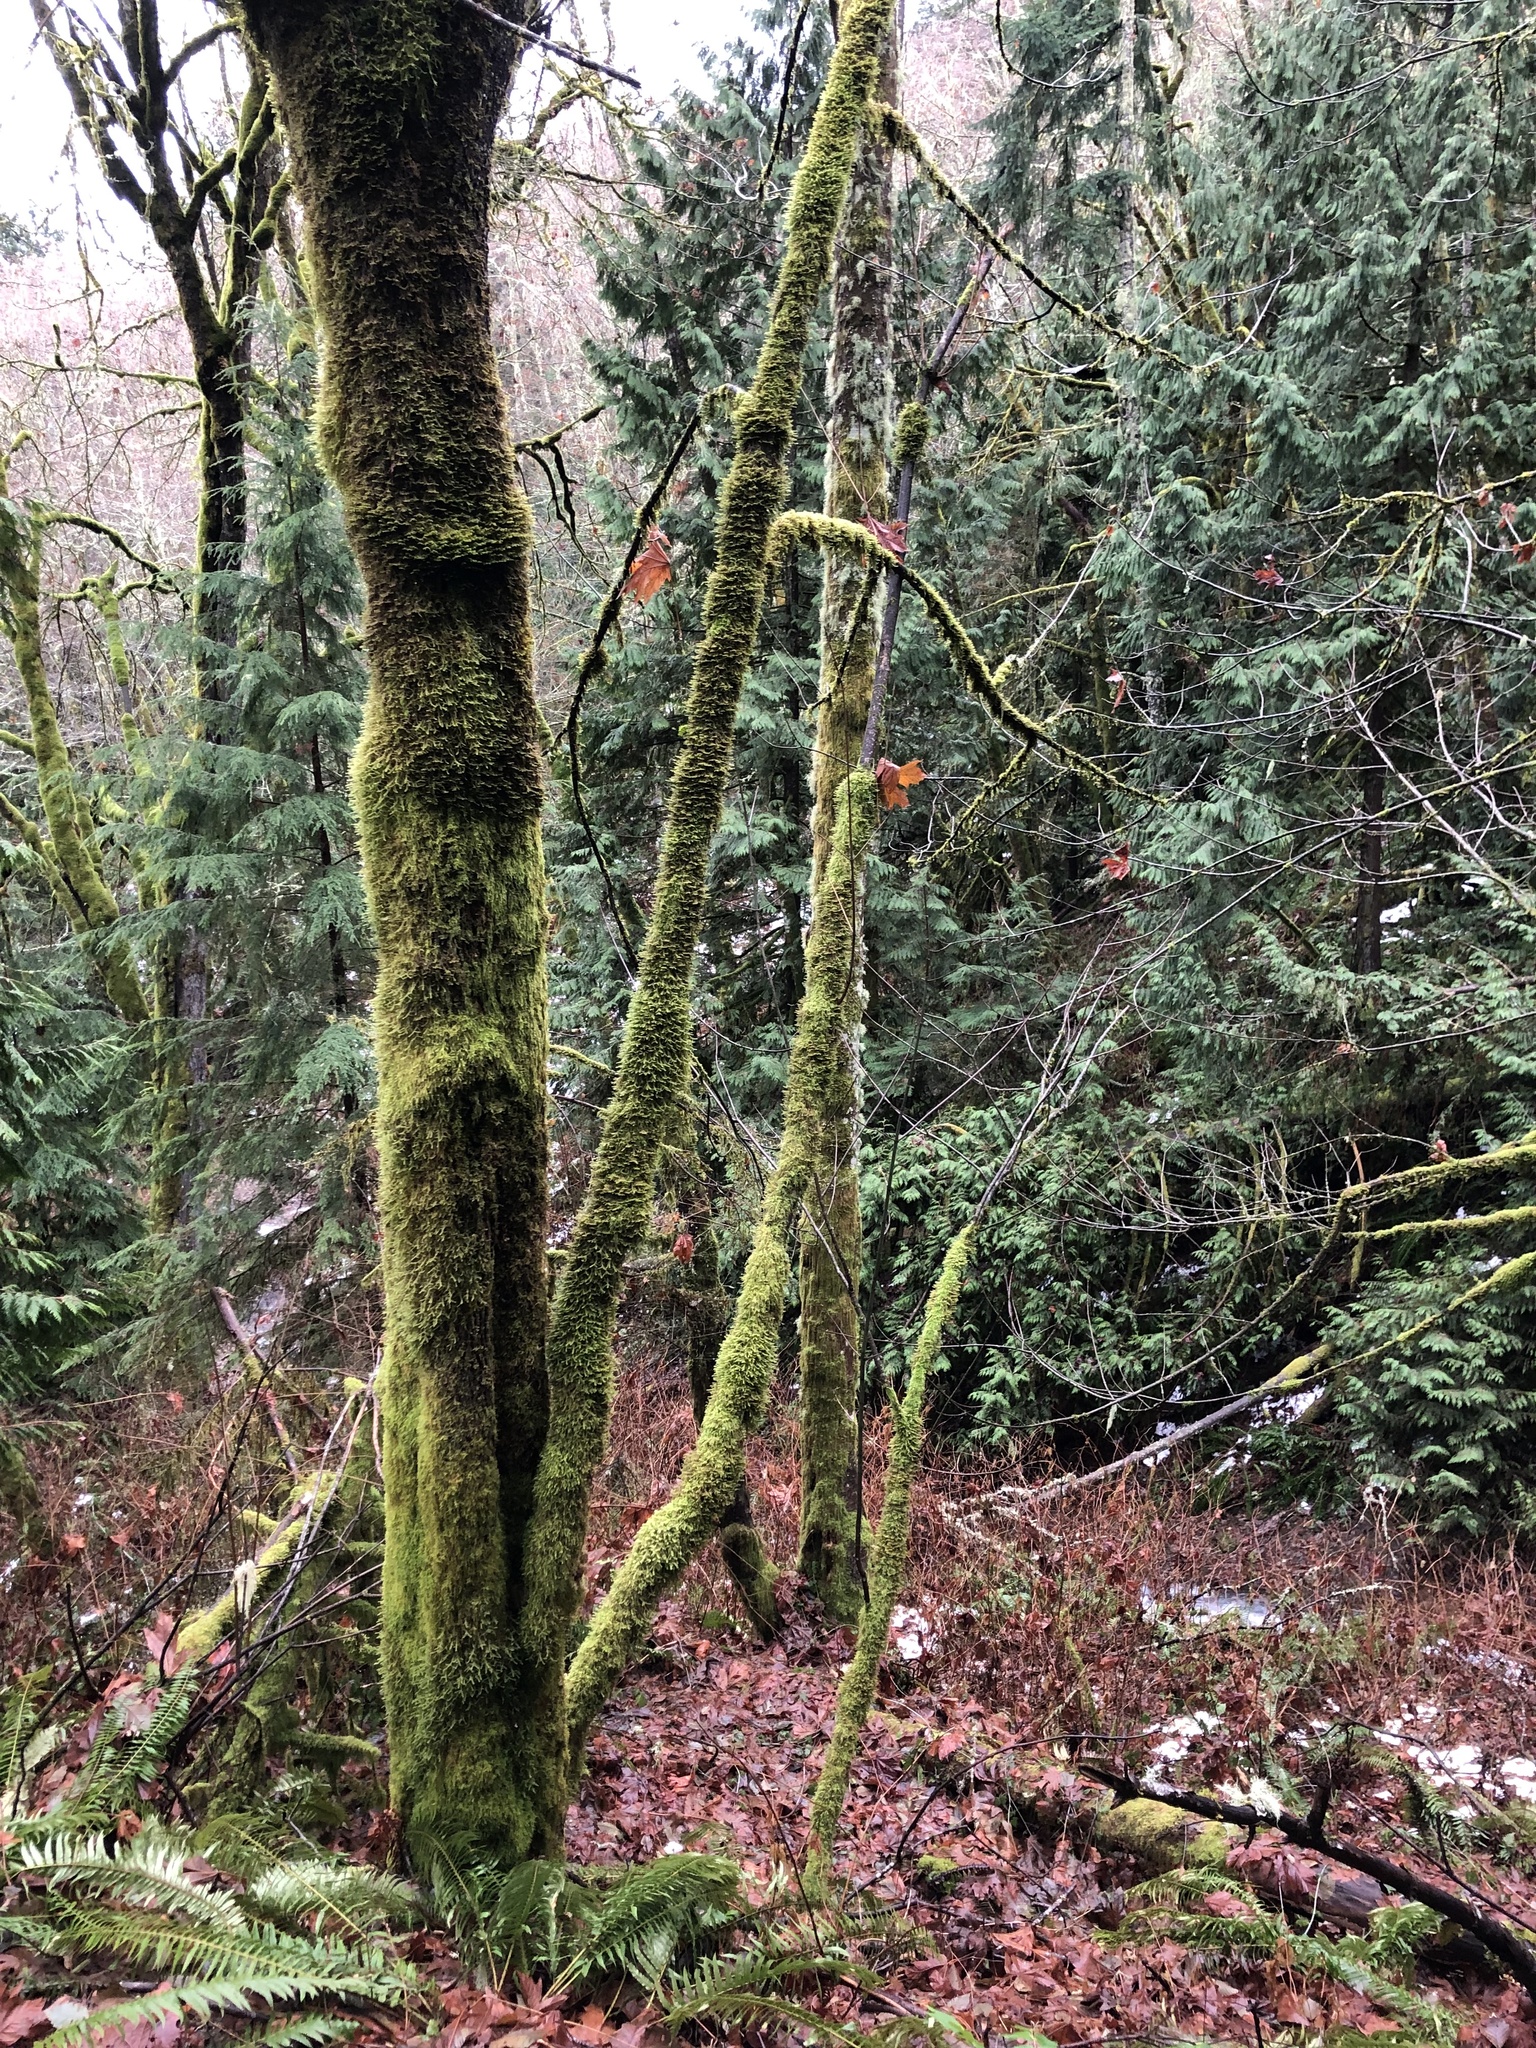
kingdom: Plantae
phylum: Tracheophyta
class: Pinopsida
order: Pinales
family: Cupressaceae
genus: Thuja
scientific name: Thuja plicata
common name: Western red-cedar
